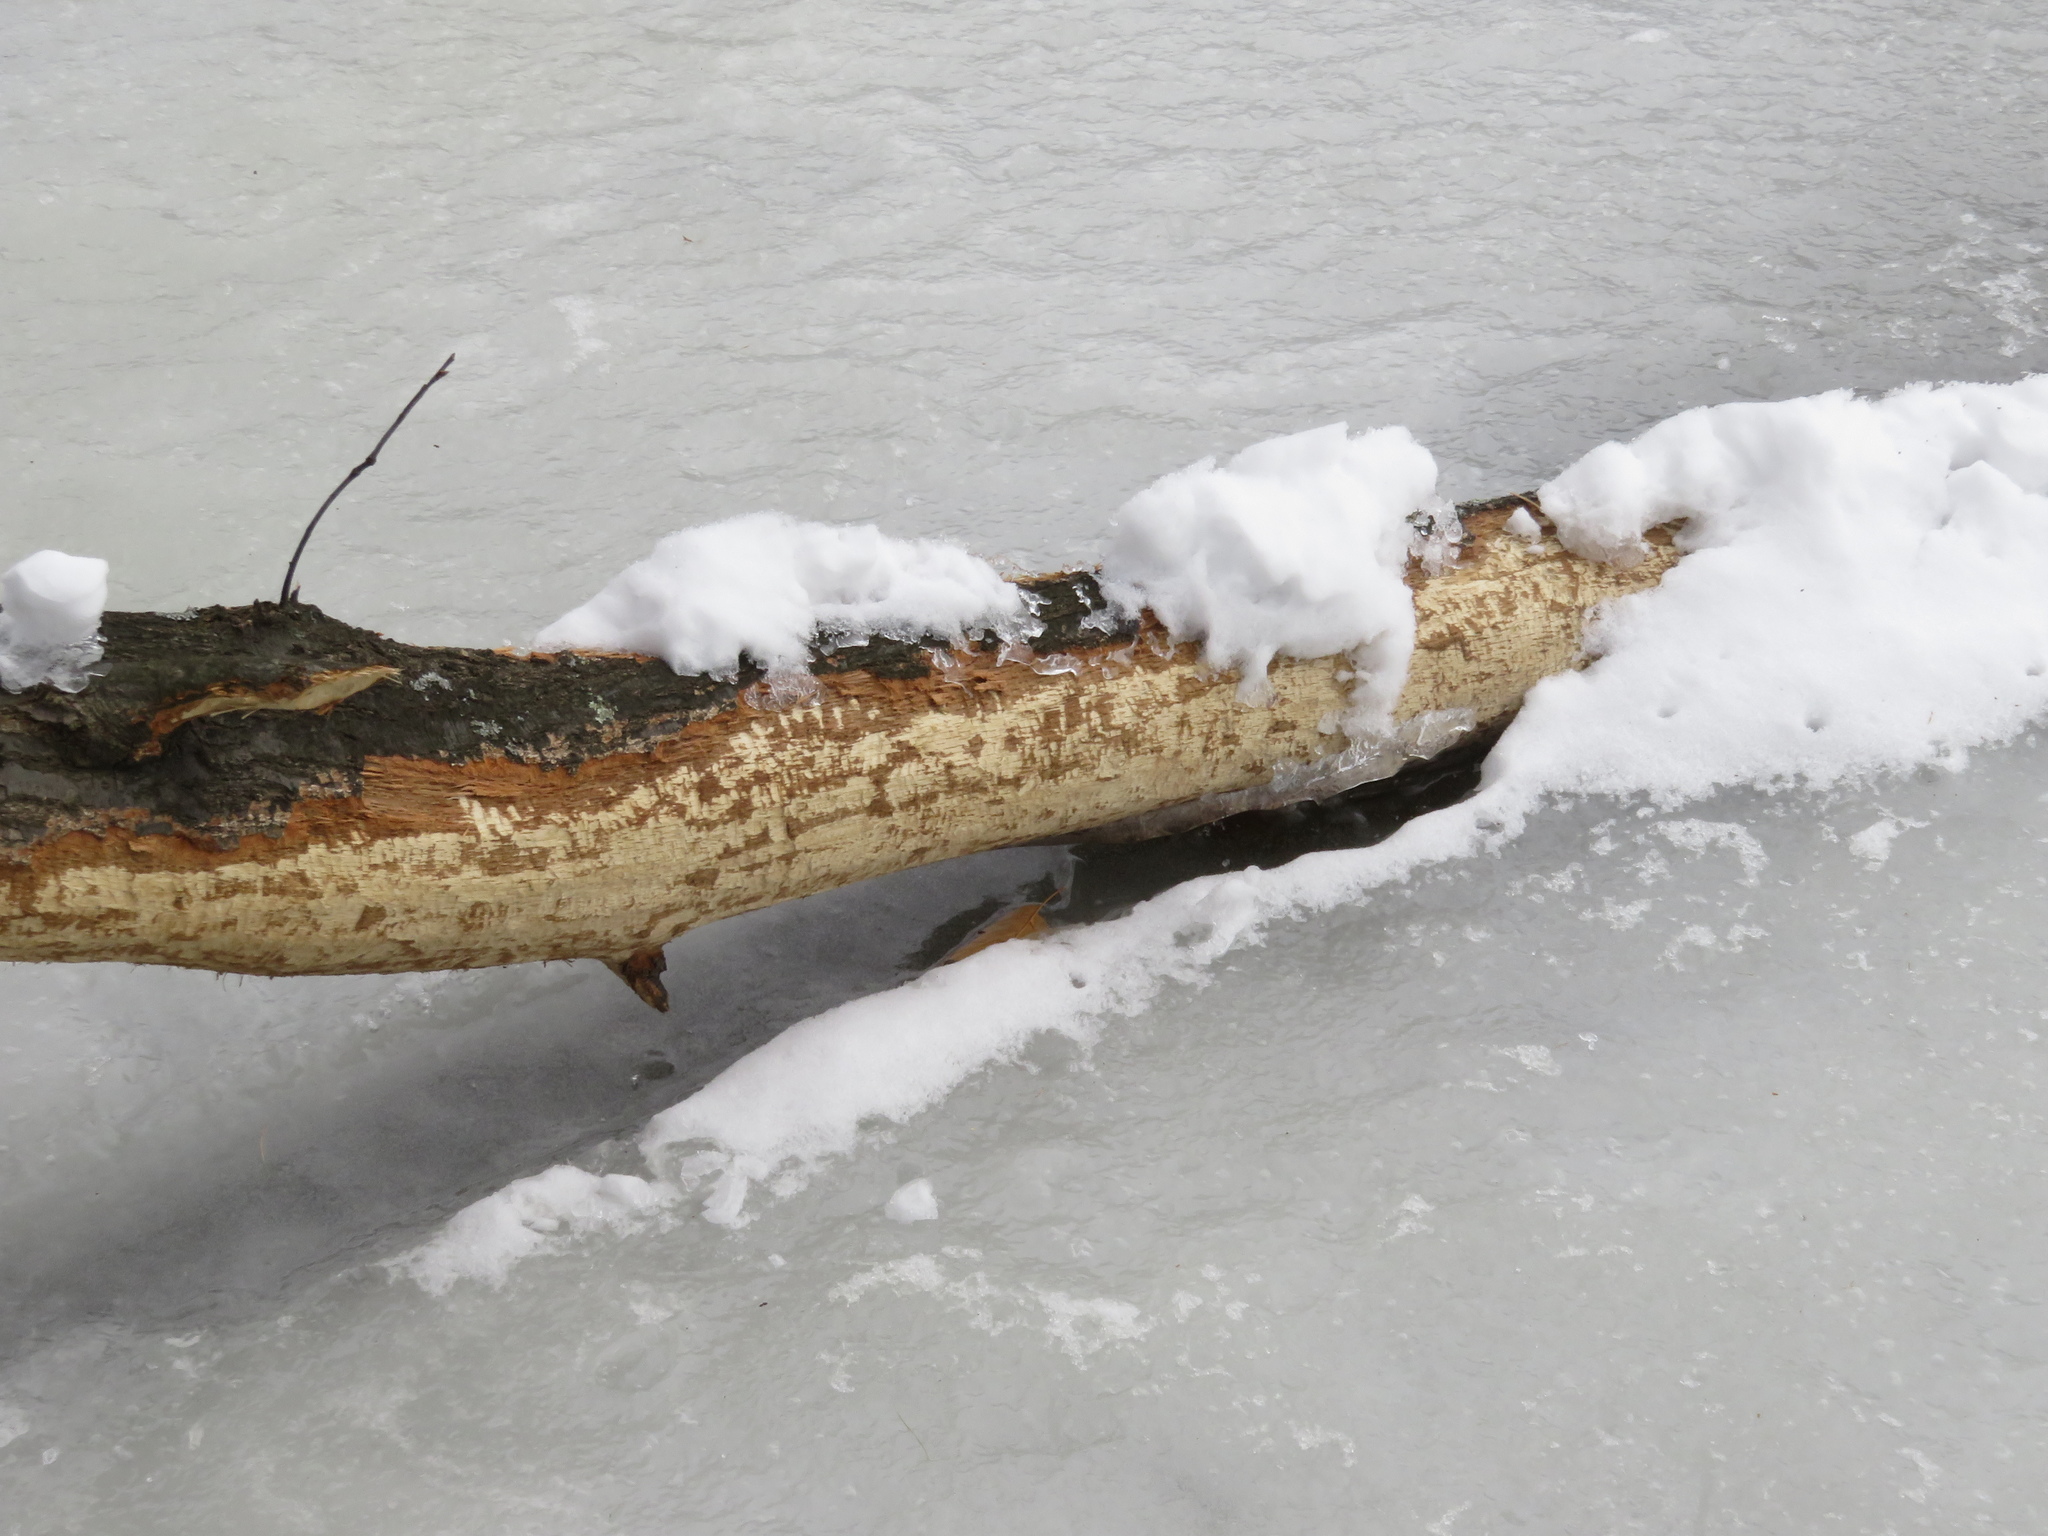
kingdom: Animalia
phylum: Chordata
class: Mammalia
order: Rodentia
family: Castoridae
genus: Castor
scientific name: Castor canadensis
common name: American beaver
